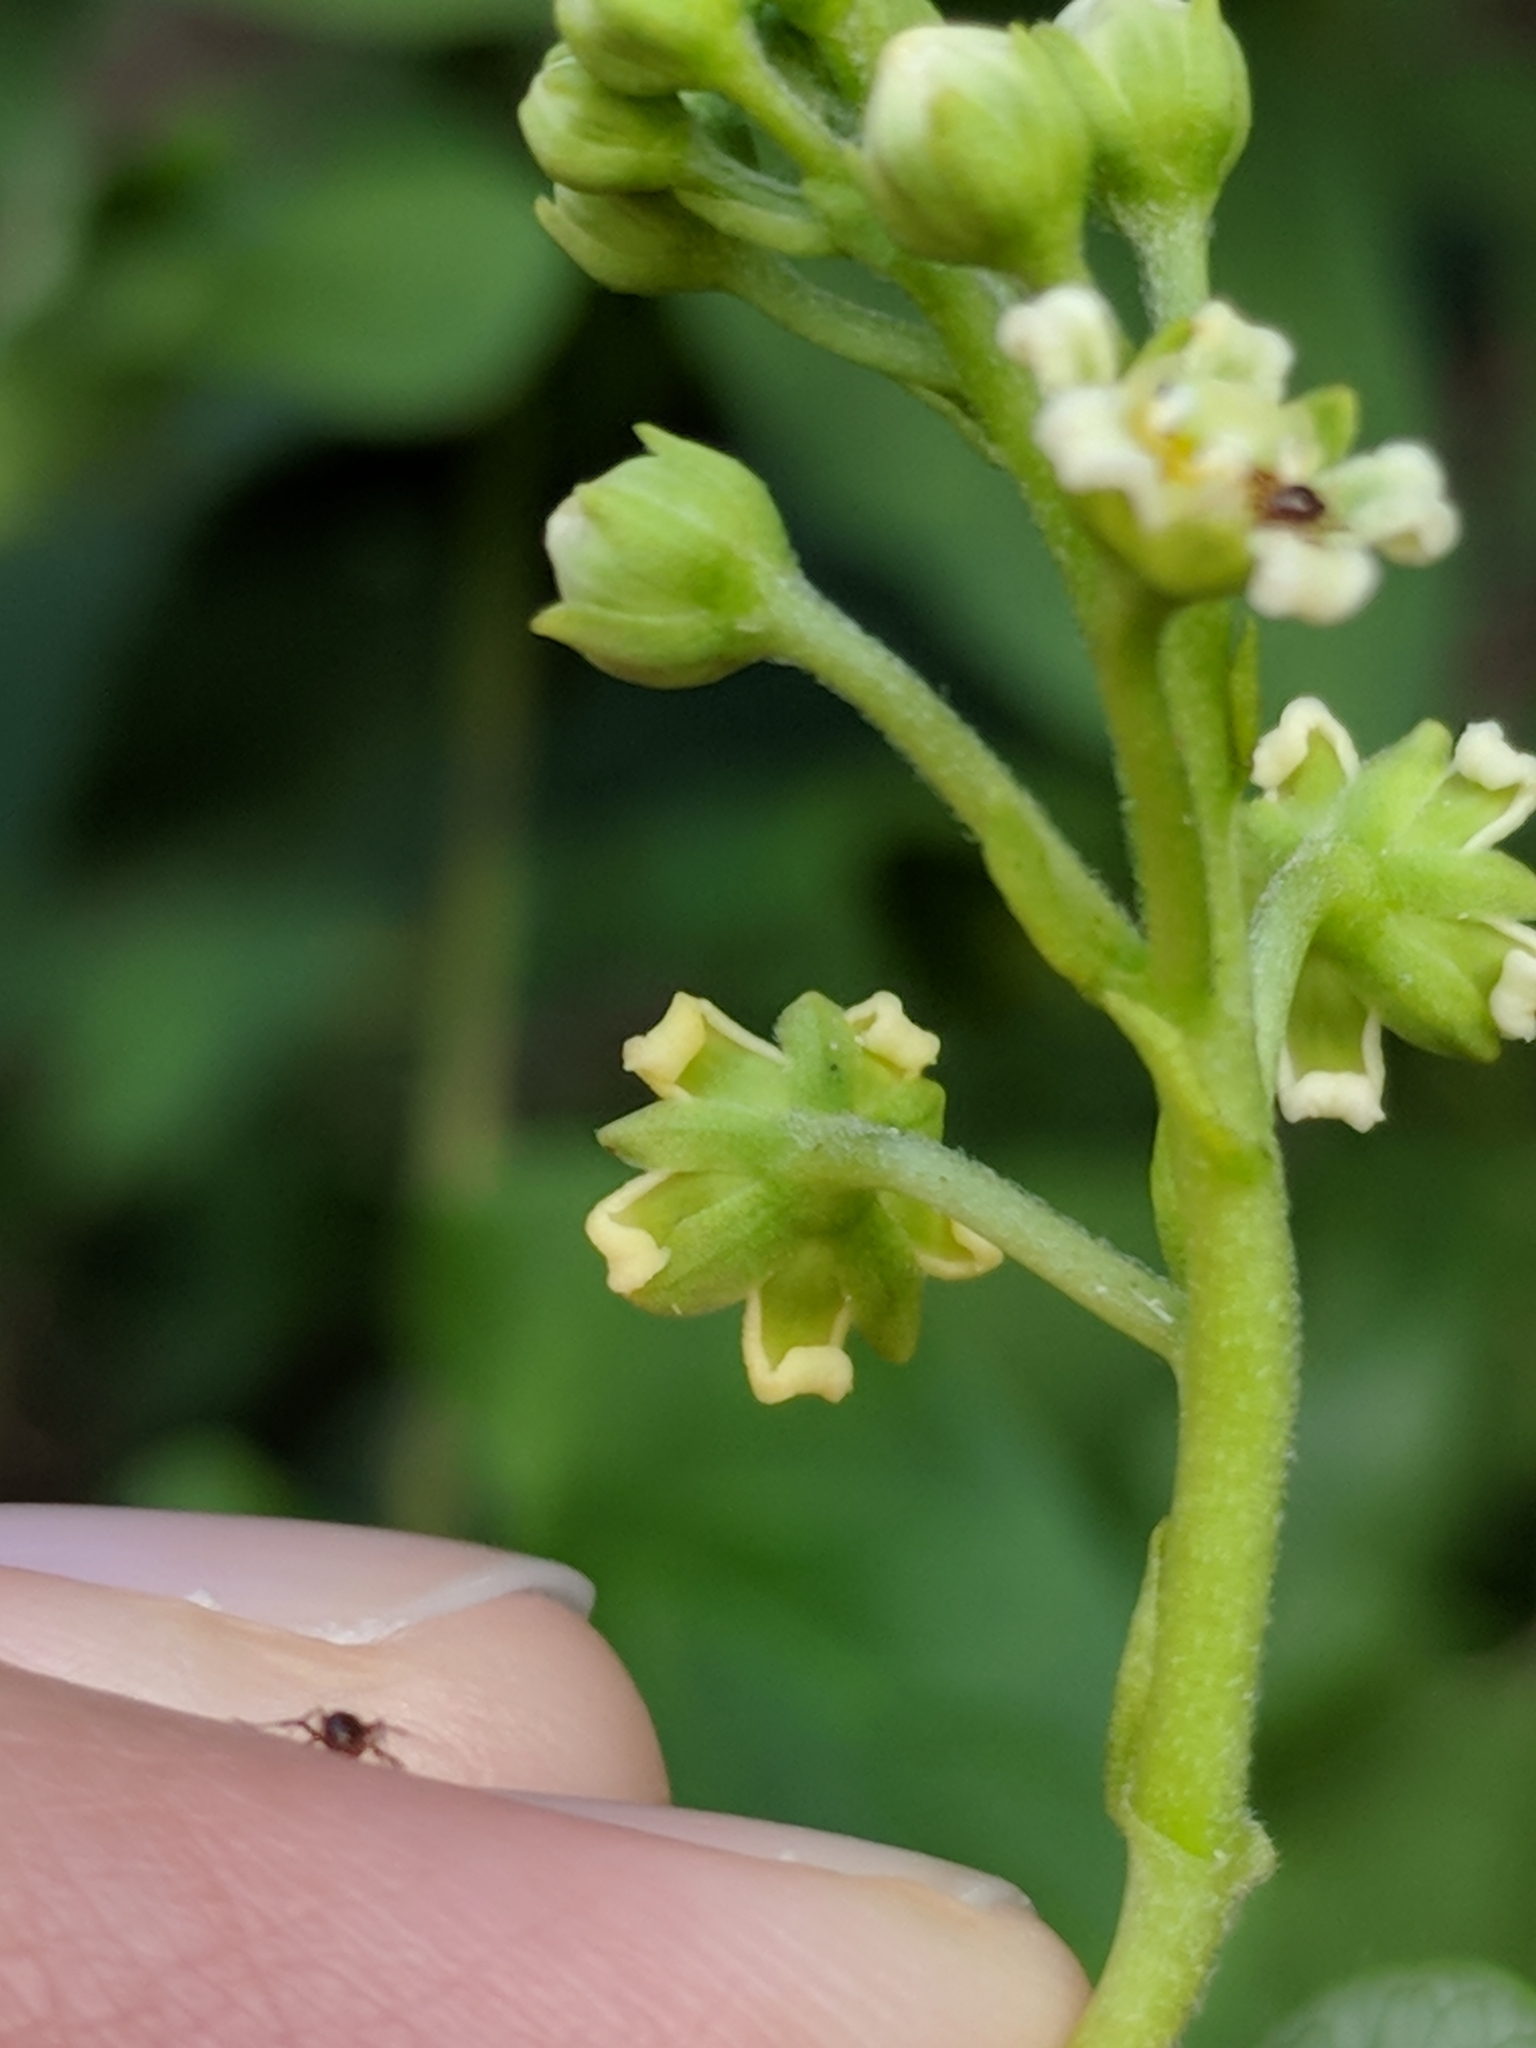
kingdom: Plantae
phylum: Tracheophyta
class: Magnoliopsida
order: Gentianales
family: Apocynaceae
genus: Cynanchum
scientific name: Cynanchum racemosum
